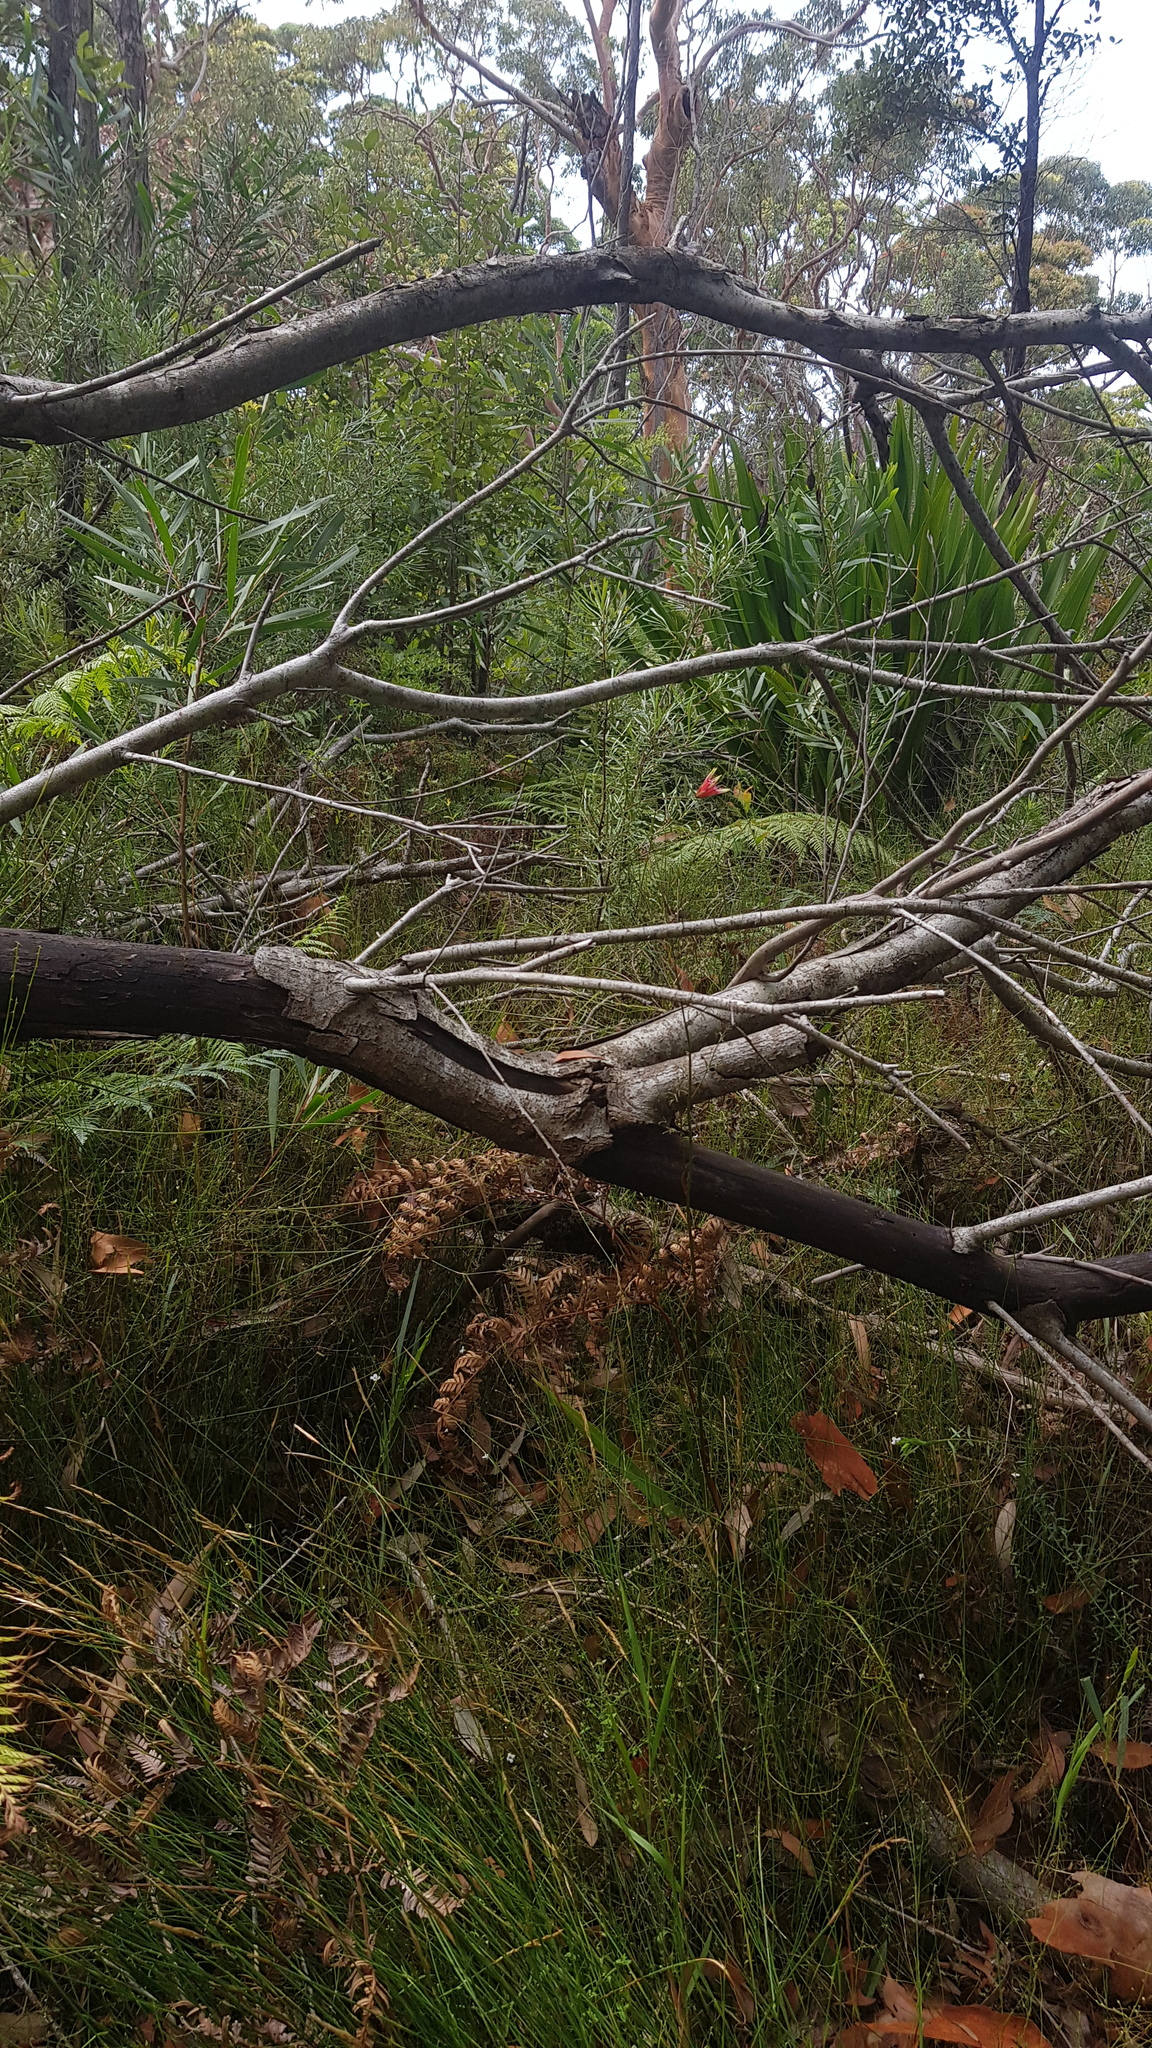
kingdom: Plantae
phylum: Tracheophyta
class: Magnoliopsida
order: Proteales
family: Proteaceae
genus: Lambertia
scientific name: Lambertia formosa
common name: Mountain-devil
